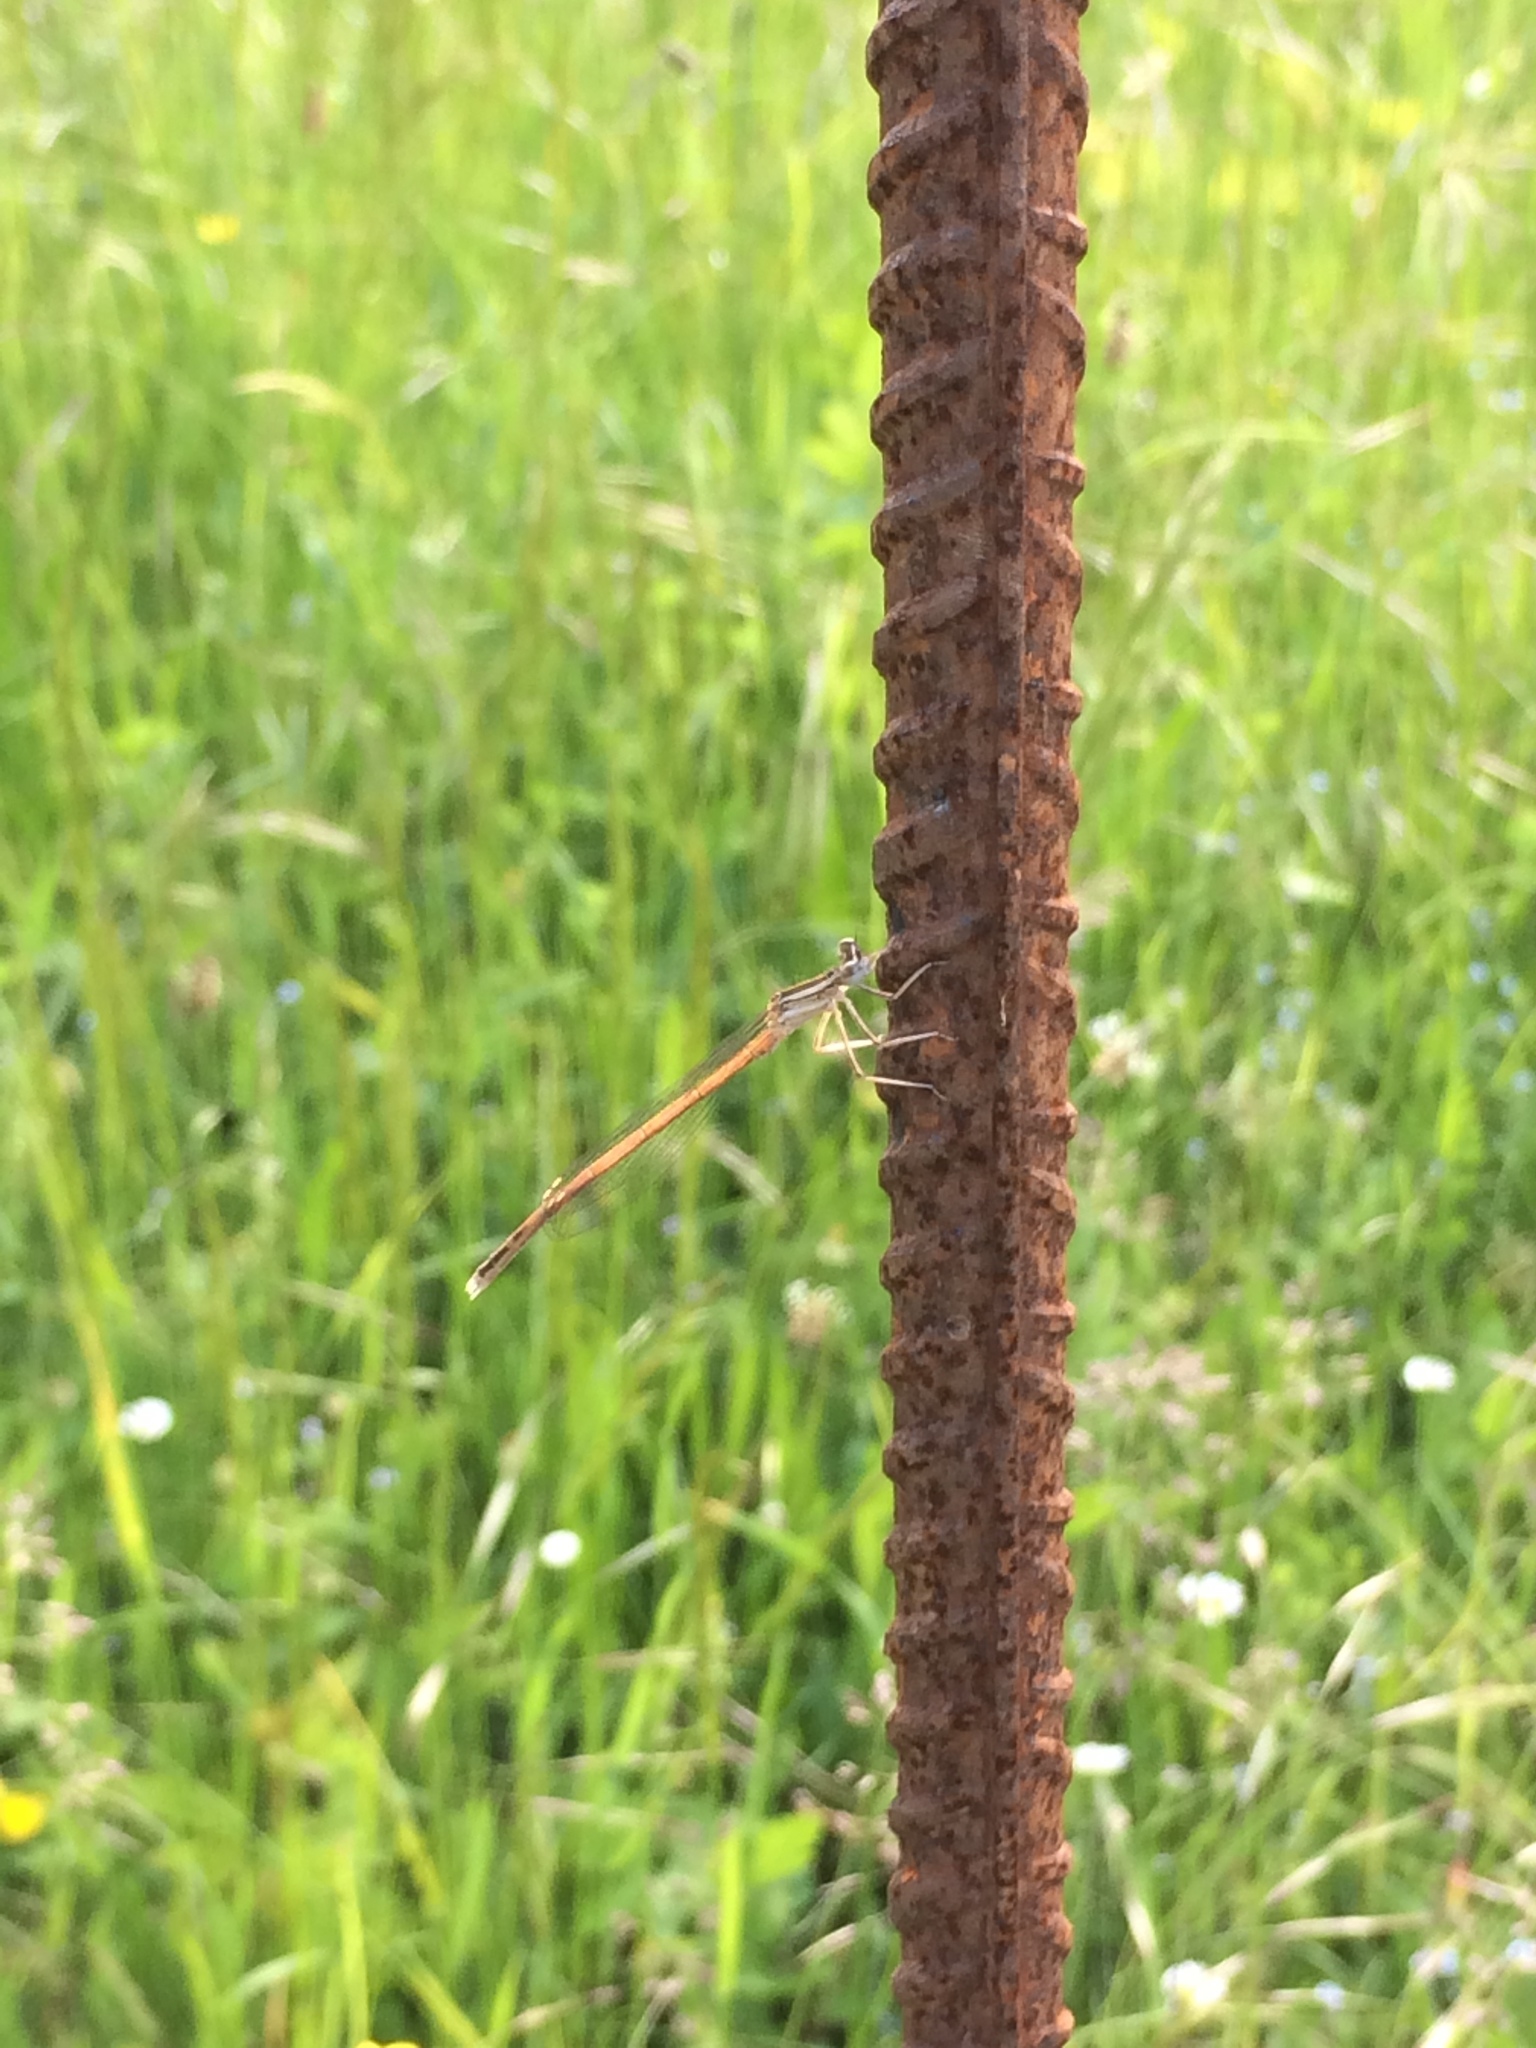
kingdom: Animalia
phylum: Arthropoda
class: Insecta
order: Odonata
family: Platycnemididae
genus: Platycnemis
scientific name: Platycnemis acutipennis
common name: Orange featherleg
